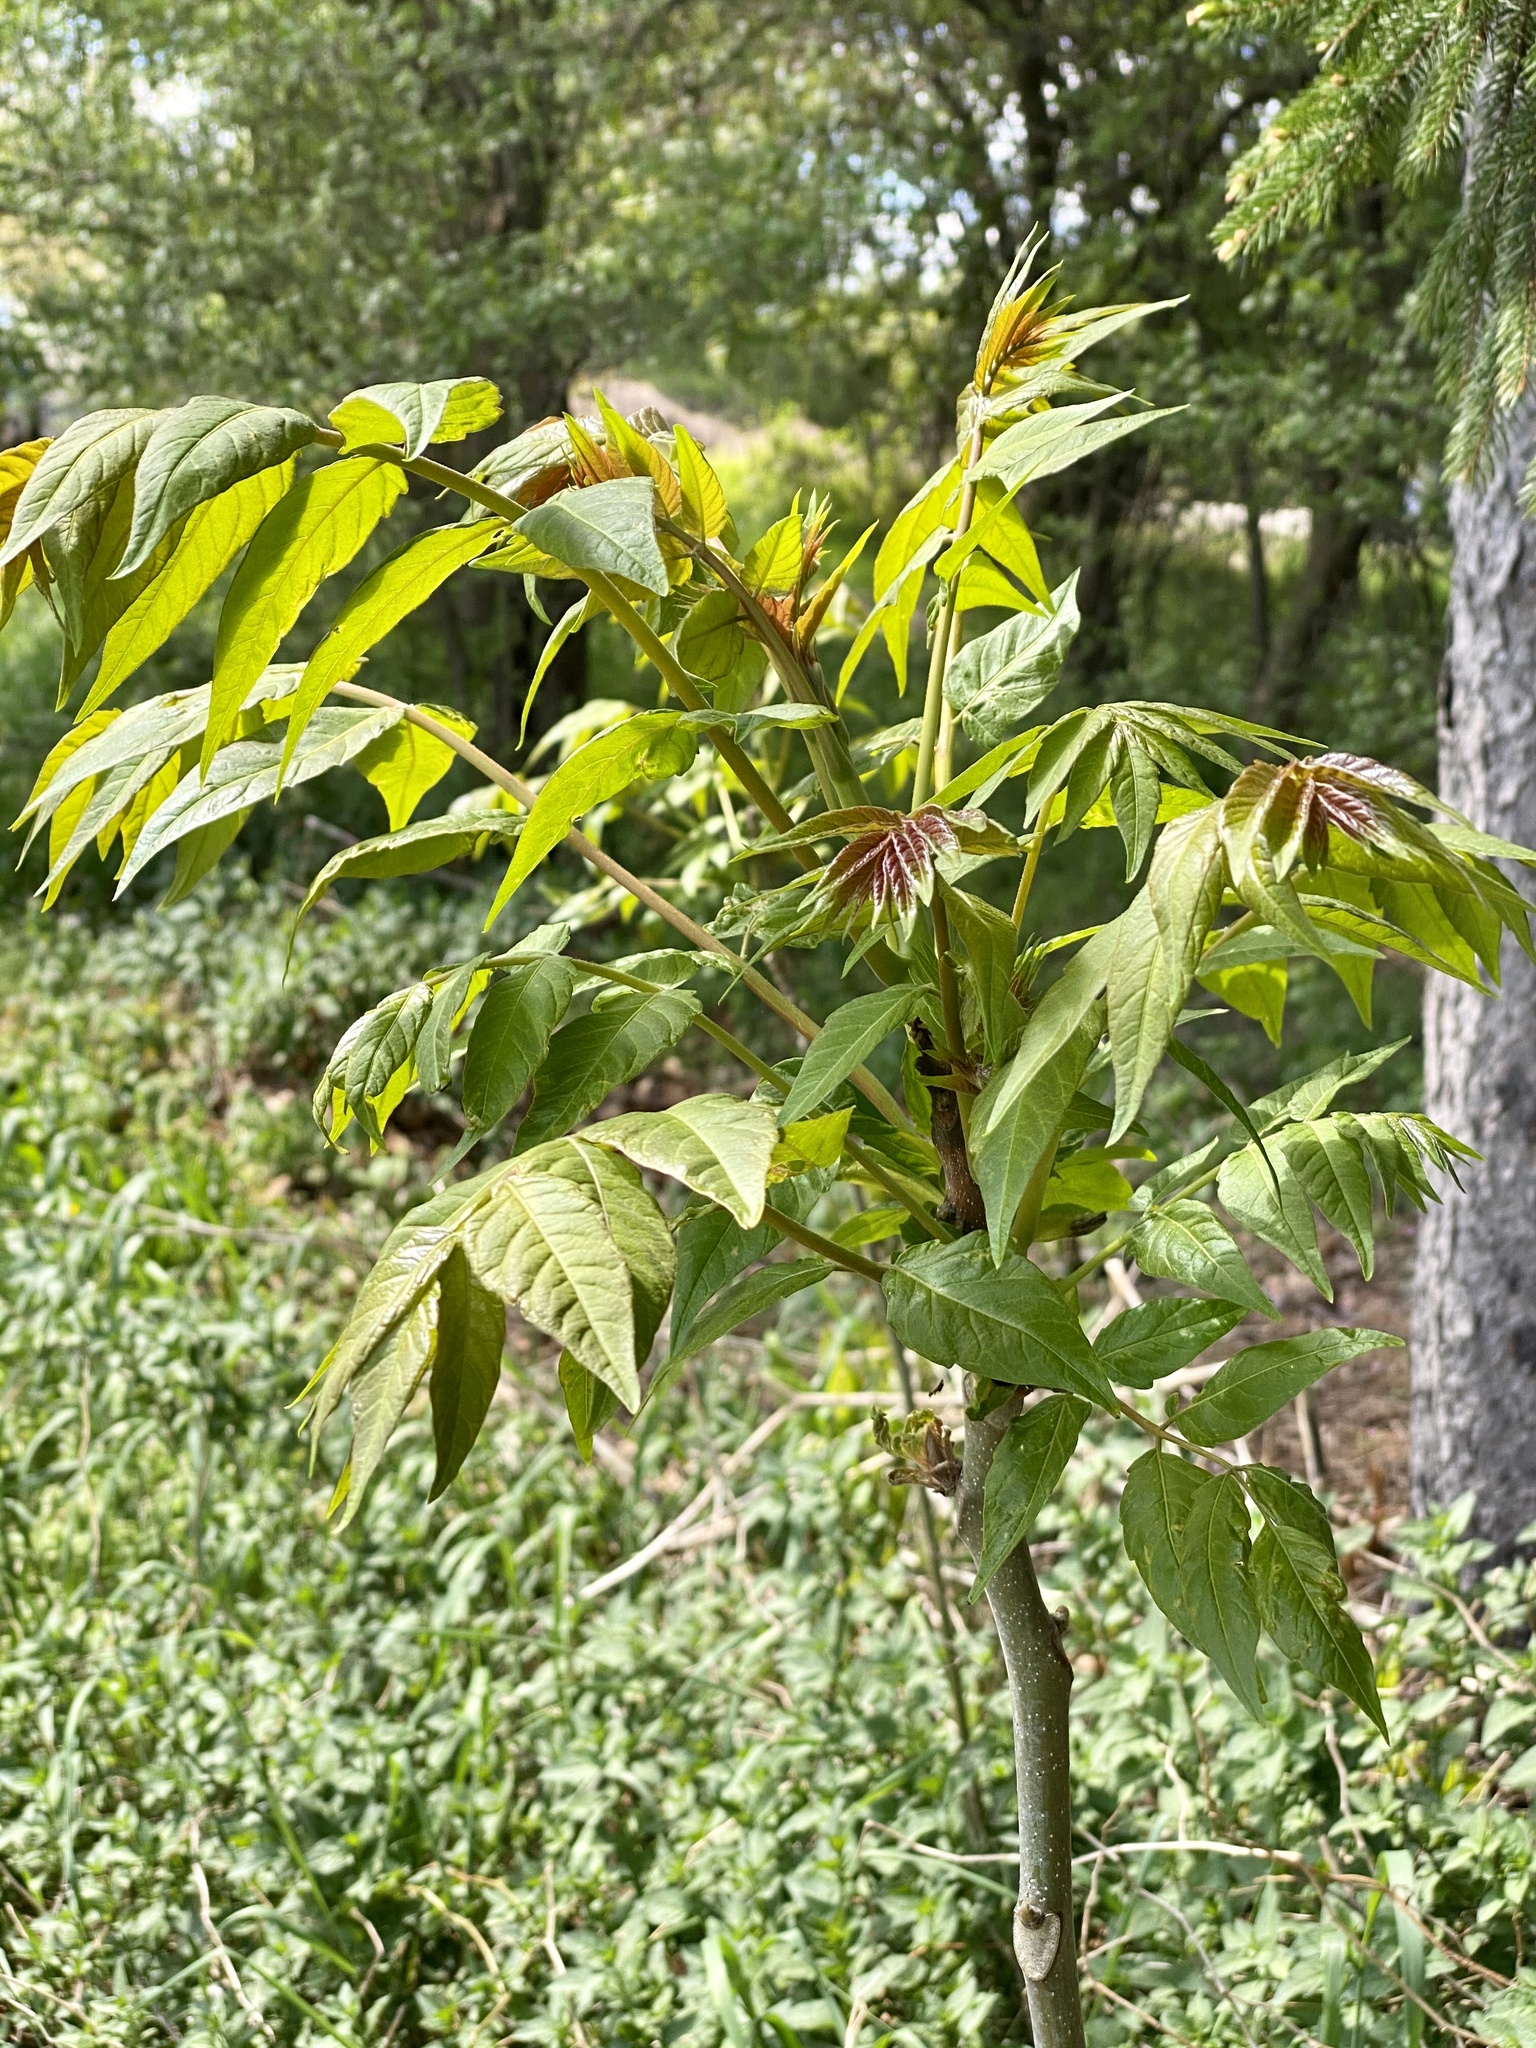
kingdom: Plantae
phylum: Tracheophyta
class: Magnoliopsida
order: Sapindales
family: Simaroubaceae
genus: Ailanthus
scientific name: Ailanthus altissima
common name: Tree-of-heaven
